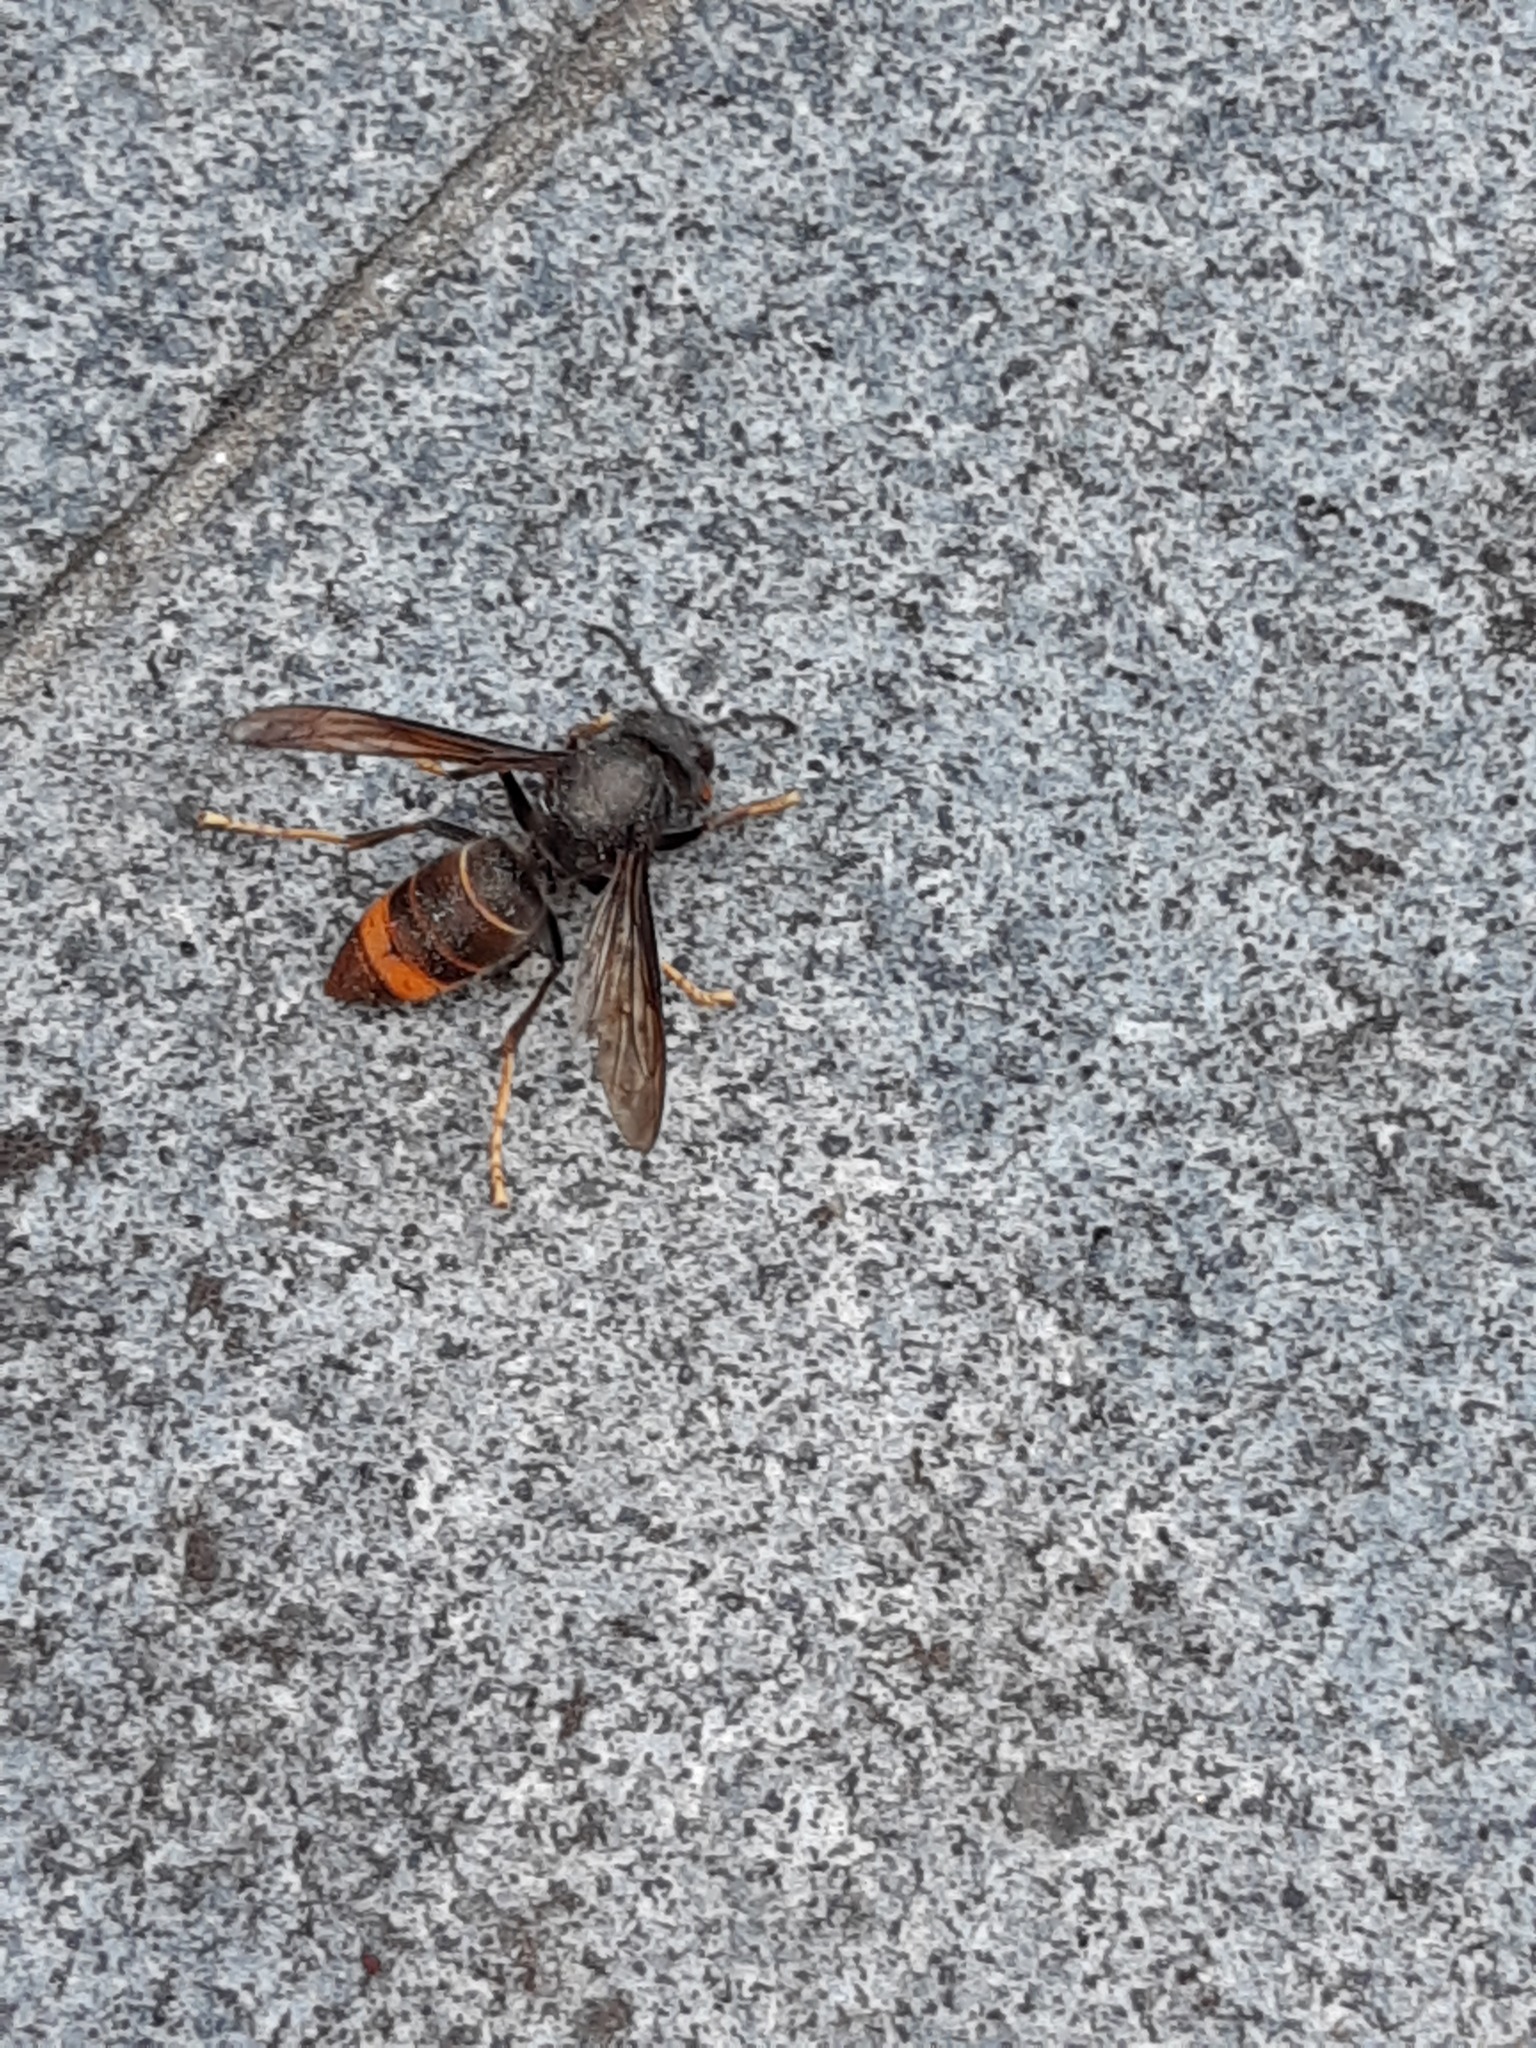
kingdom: Animalia
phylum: Arthropoda
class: Insecta
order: Hymenoptera
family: Vespidae
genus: Vespa
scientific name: Vespa velutina
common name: Asian hornet
